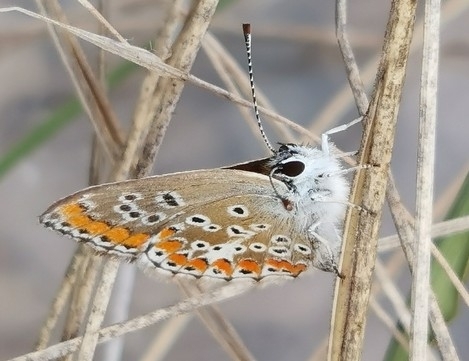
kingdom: Animalia
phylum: Arthropoda
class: Insecta
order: Lepidoptera
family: Lycaenidae
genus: Aricia
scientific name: Aricia agestis
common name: Brown argus
